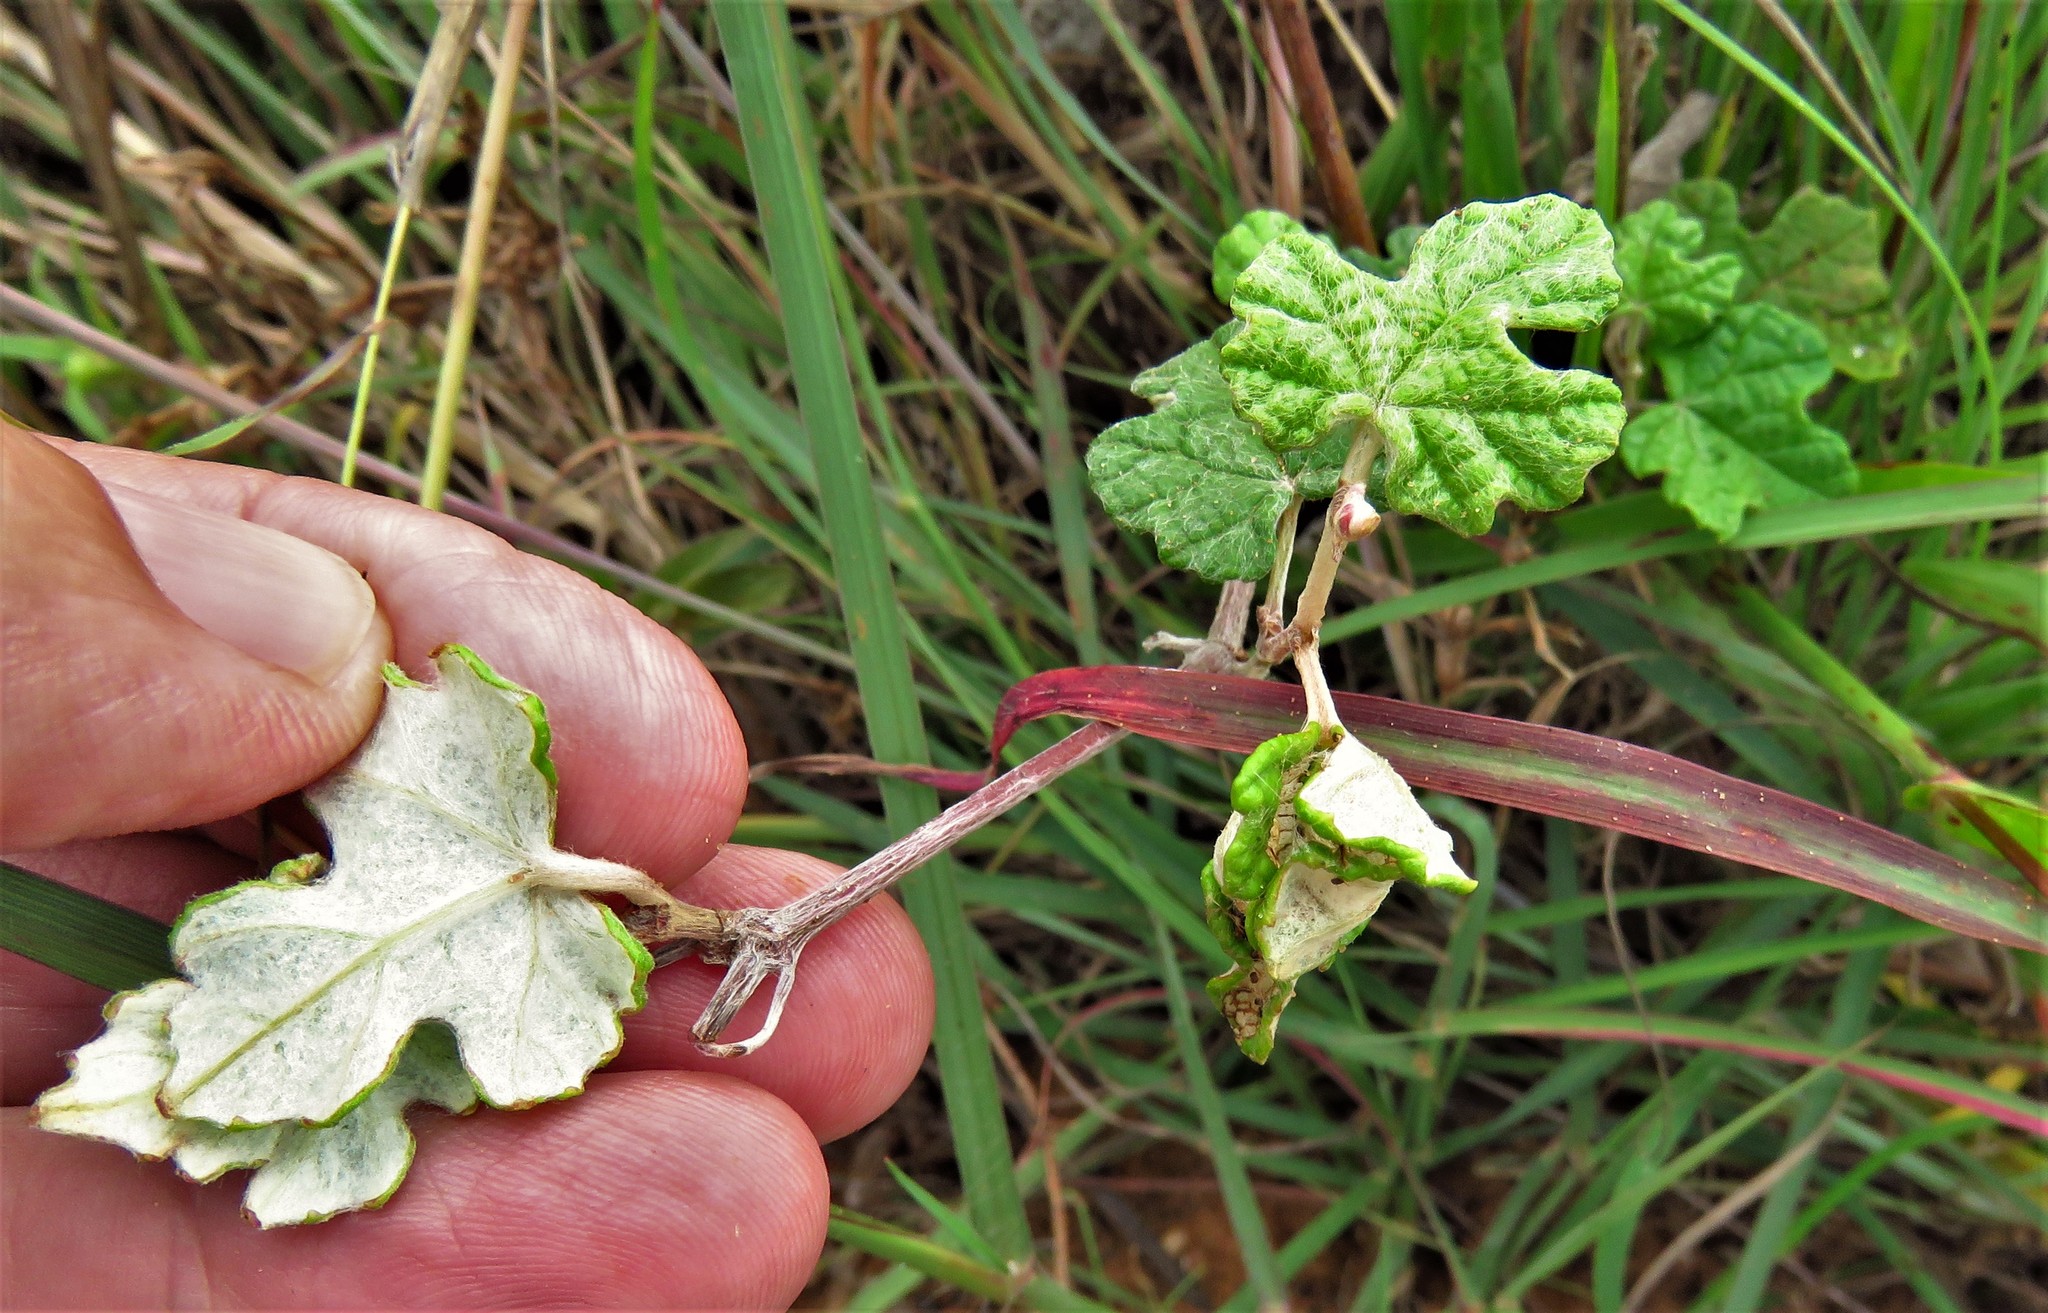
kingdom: Plantae
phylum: Tracheophyta
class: Magnoliopsida
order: Vitales
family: Vitaceae
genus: Vitis
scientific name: Vitis mustangensis
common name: Mustang grape
